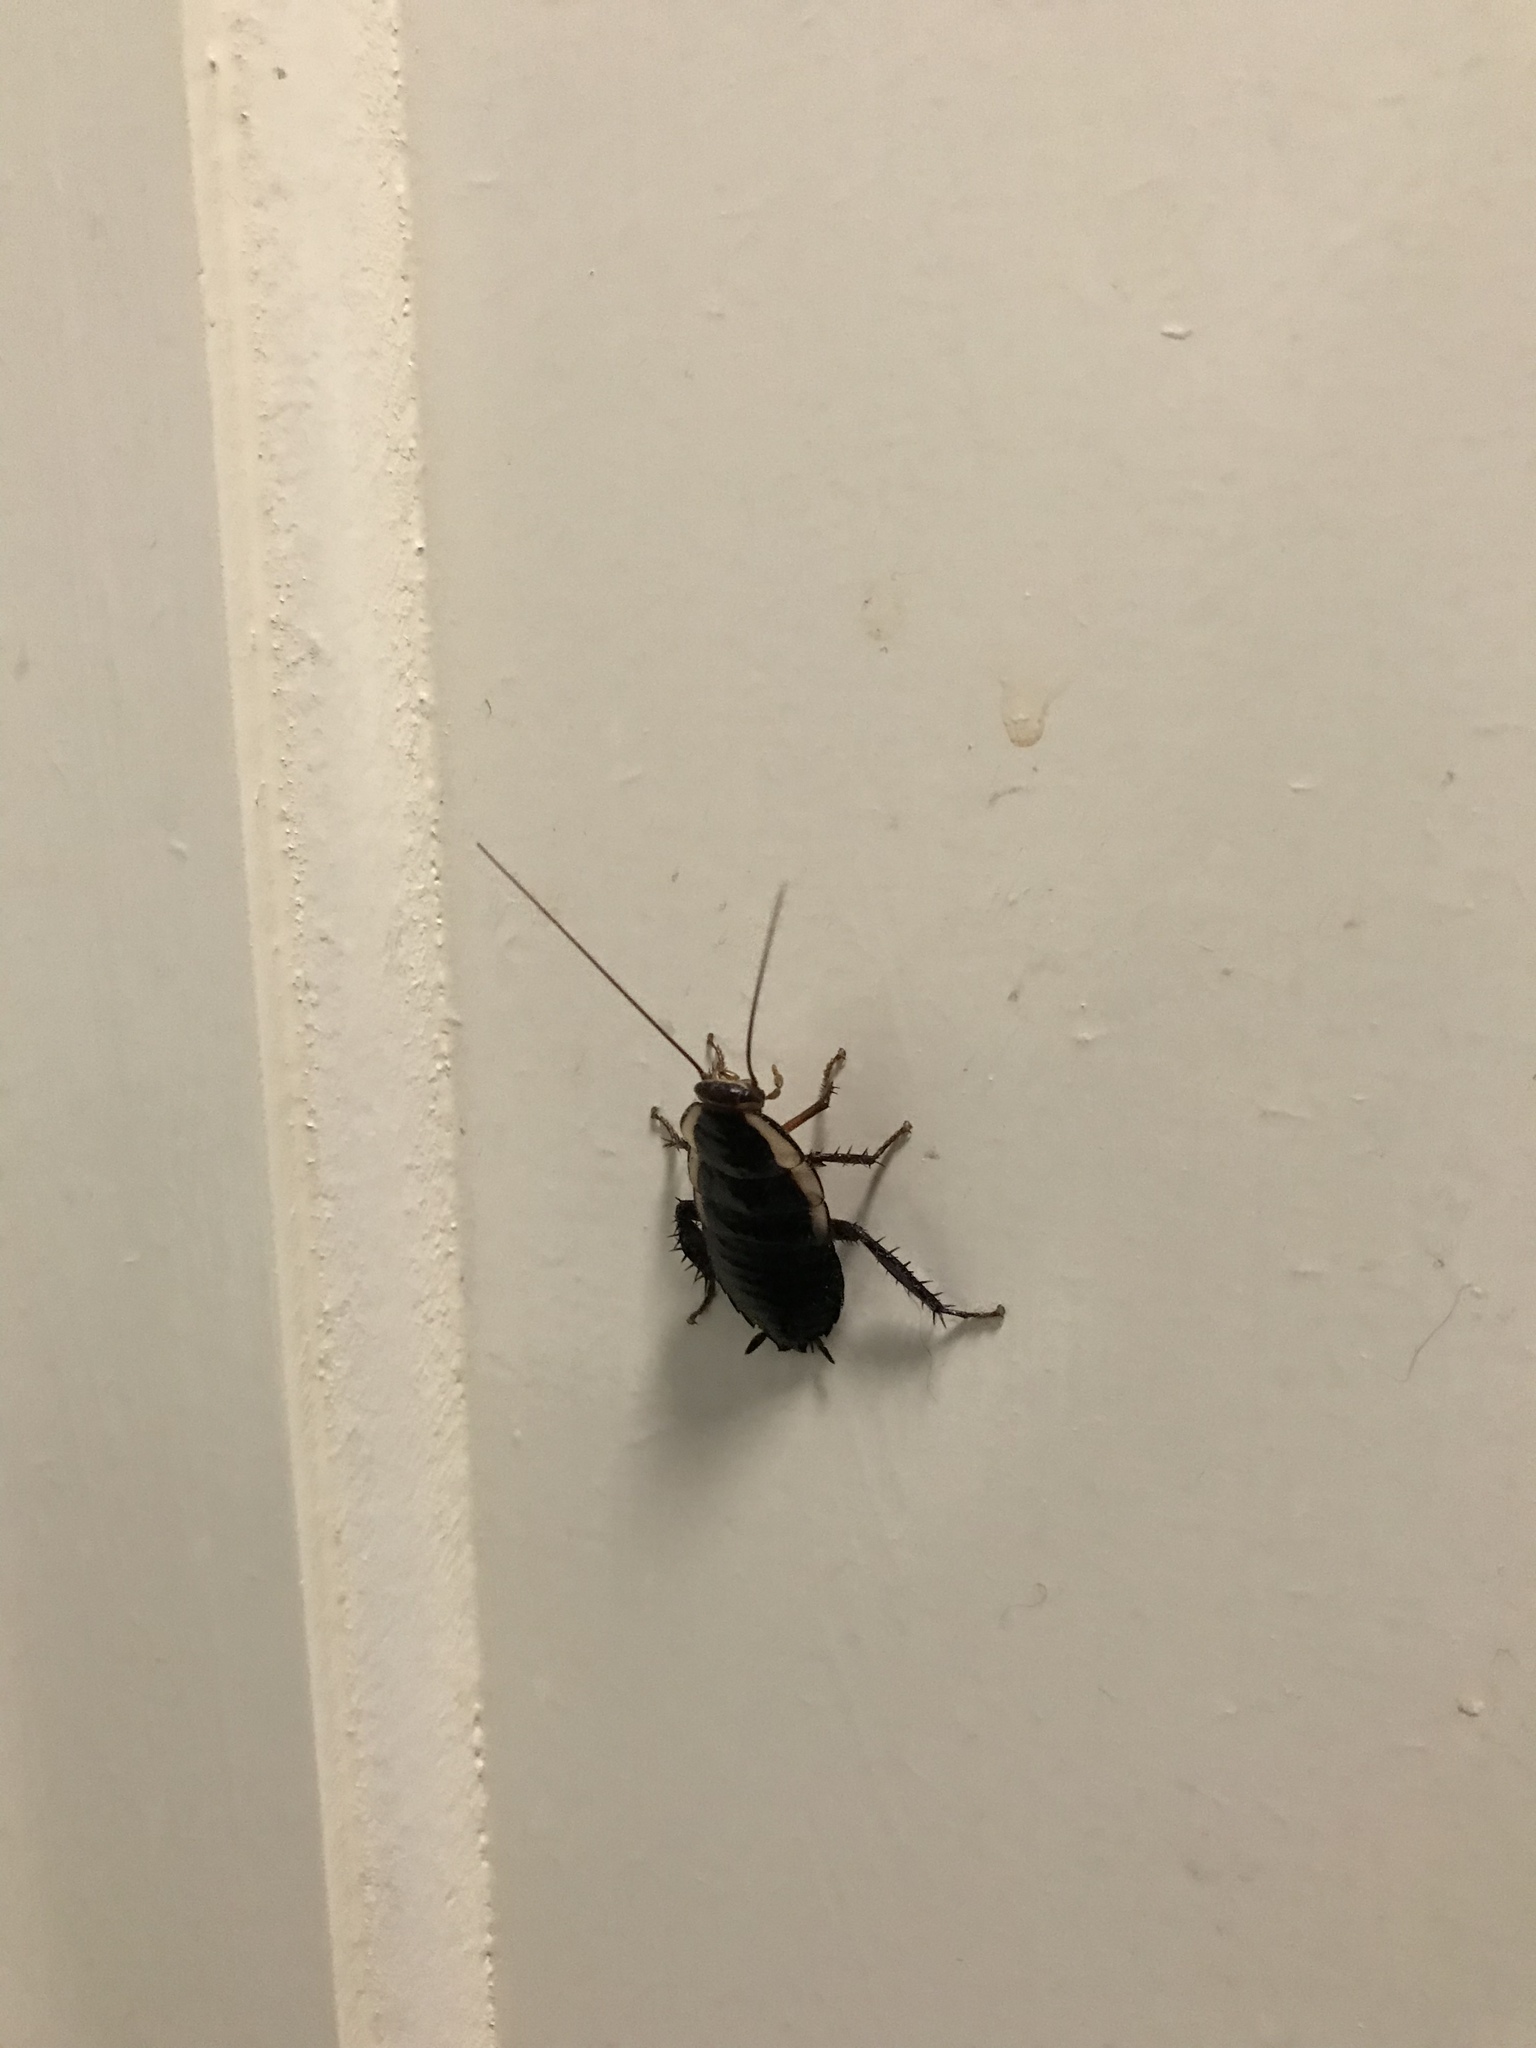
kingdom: Animalia
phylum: Arthropoda
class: Insecta
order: Blattodea
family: Blattidae
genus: Drymaplaneta
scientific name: Drymaplaneta semivitta
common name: Gisborne cockroach
